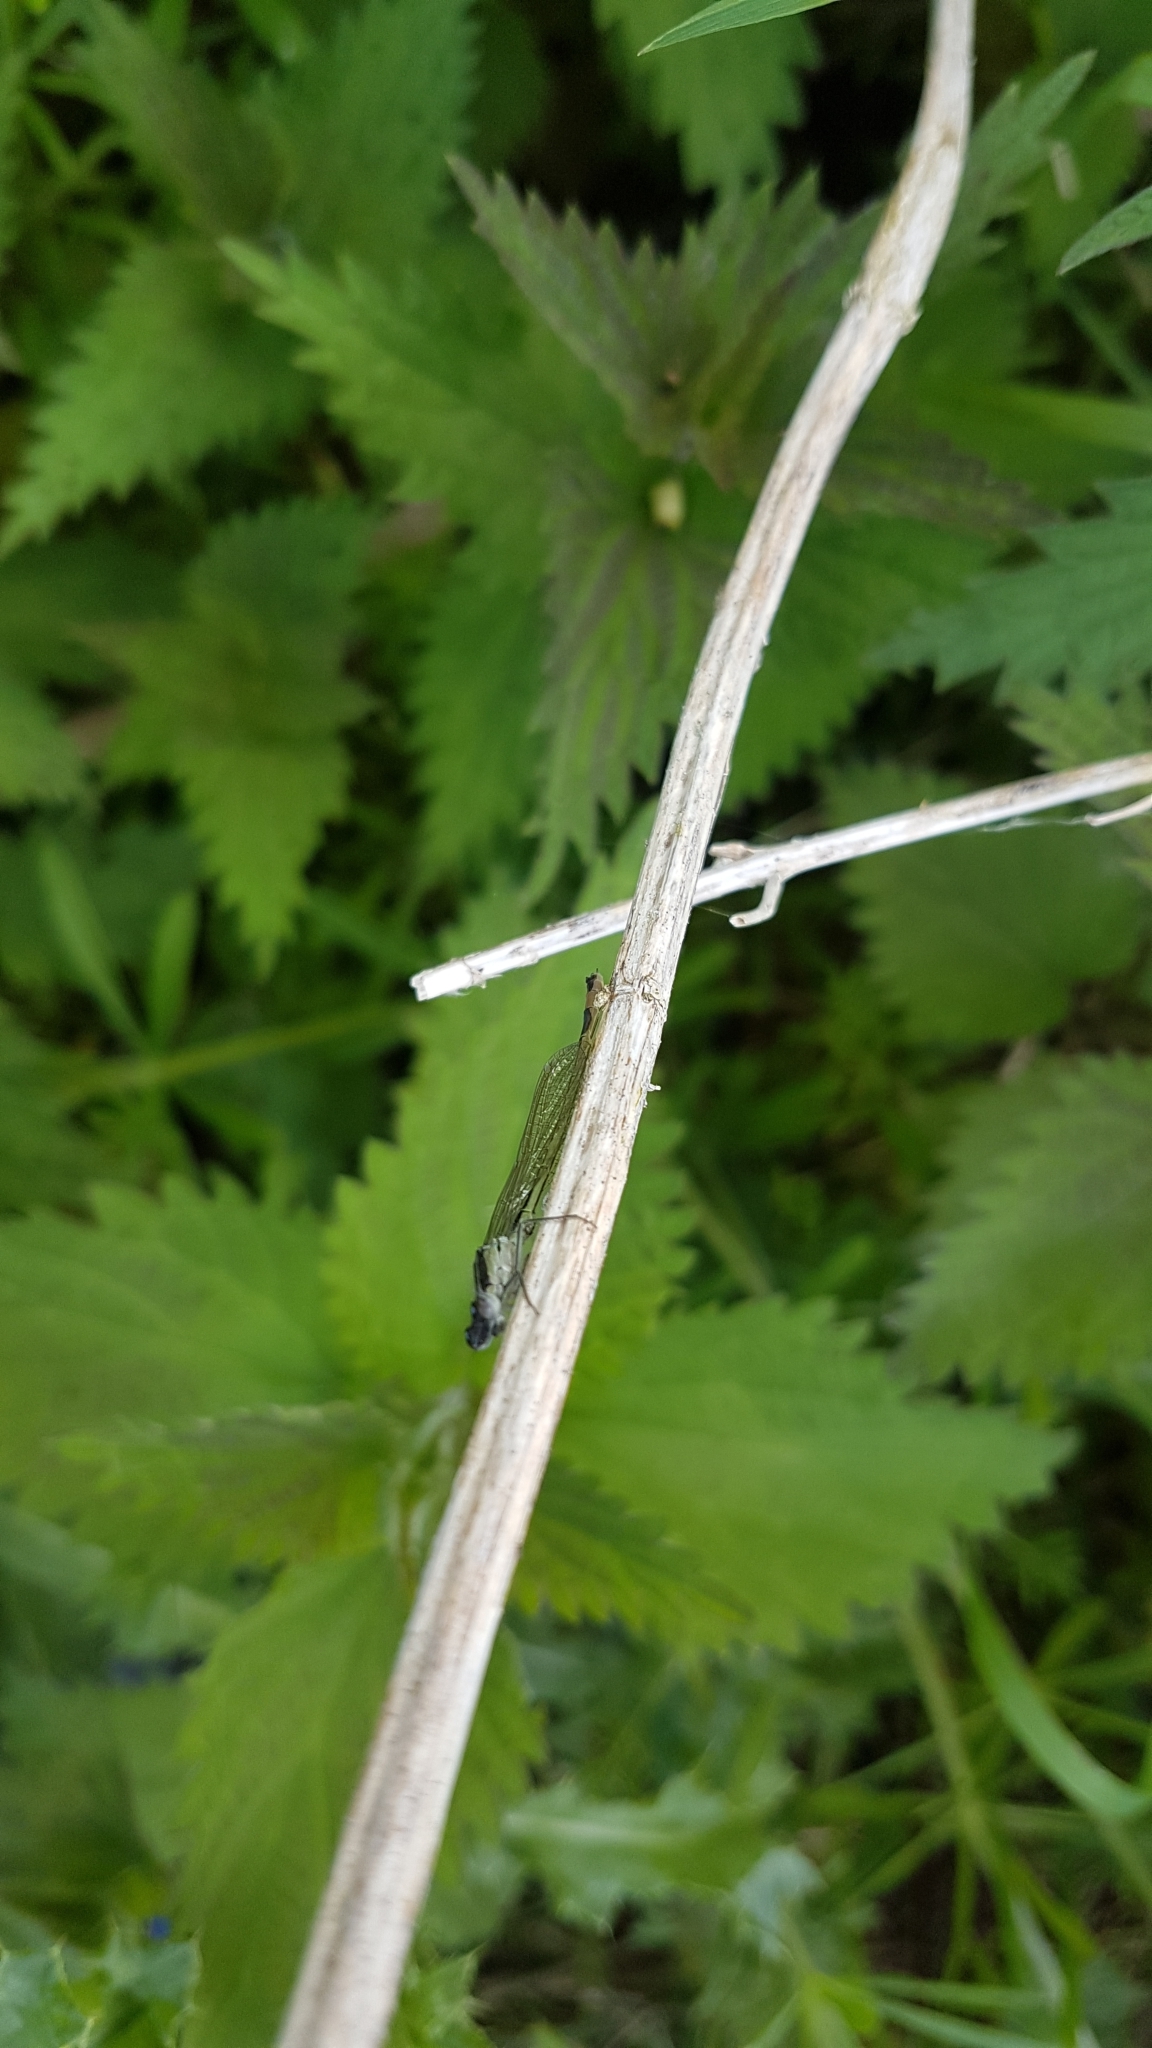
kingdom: Animalia
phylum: Arthropoda
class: Insecta
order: Odonata
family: Coenagrionidae
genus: Ischnura
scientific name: Ischnura elegans
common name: Blue-tailed damselfly
